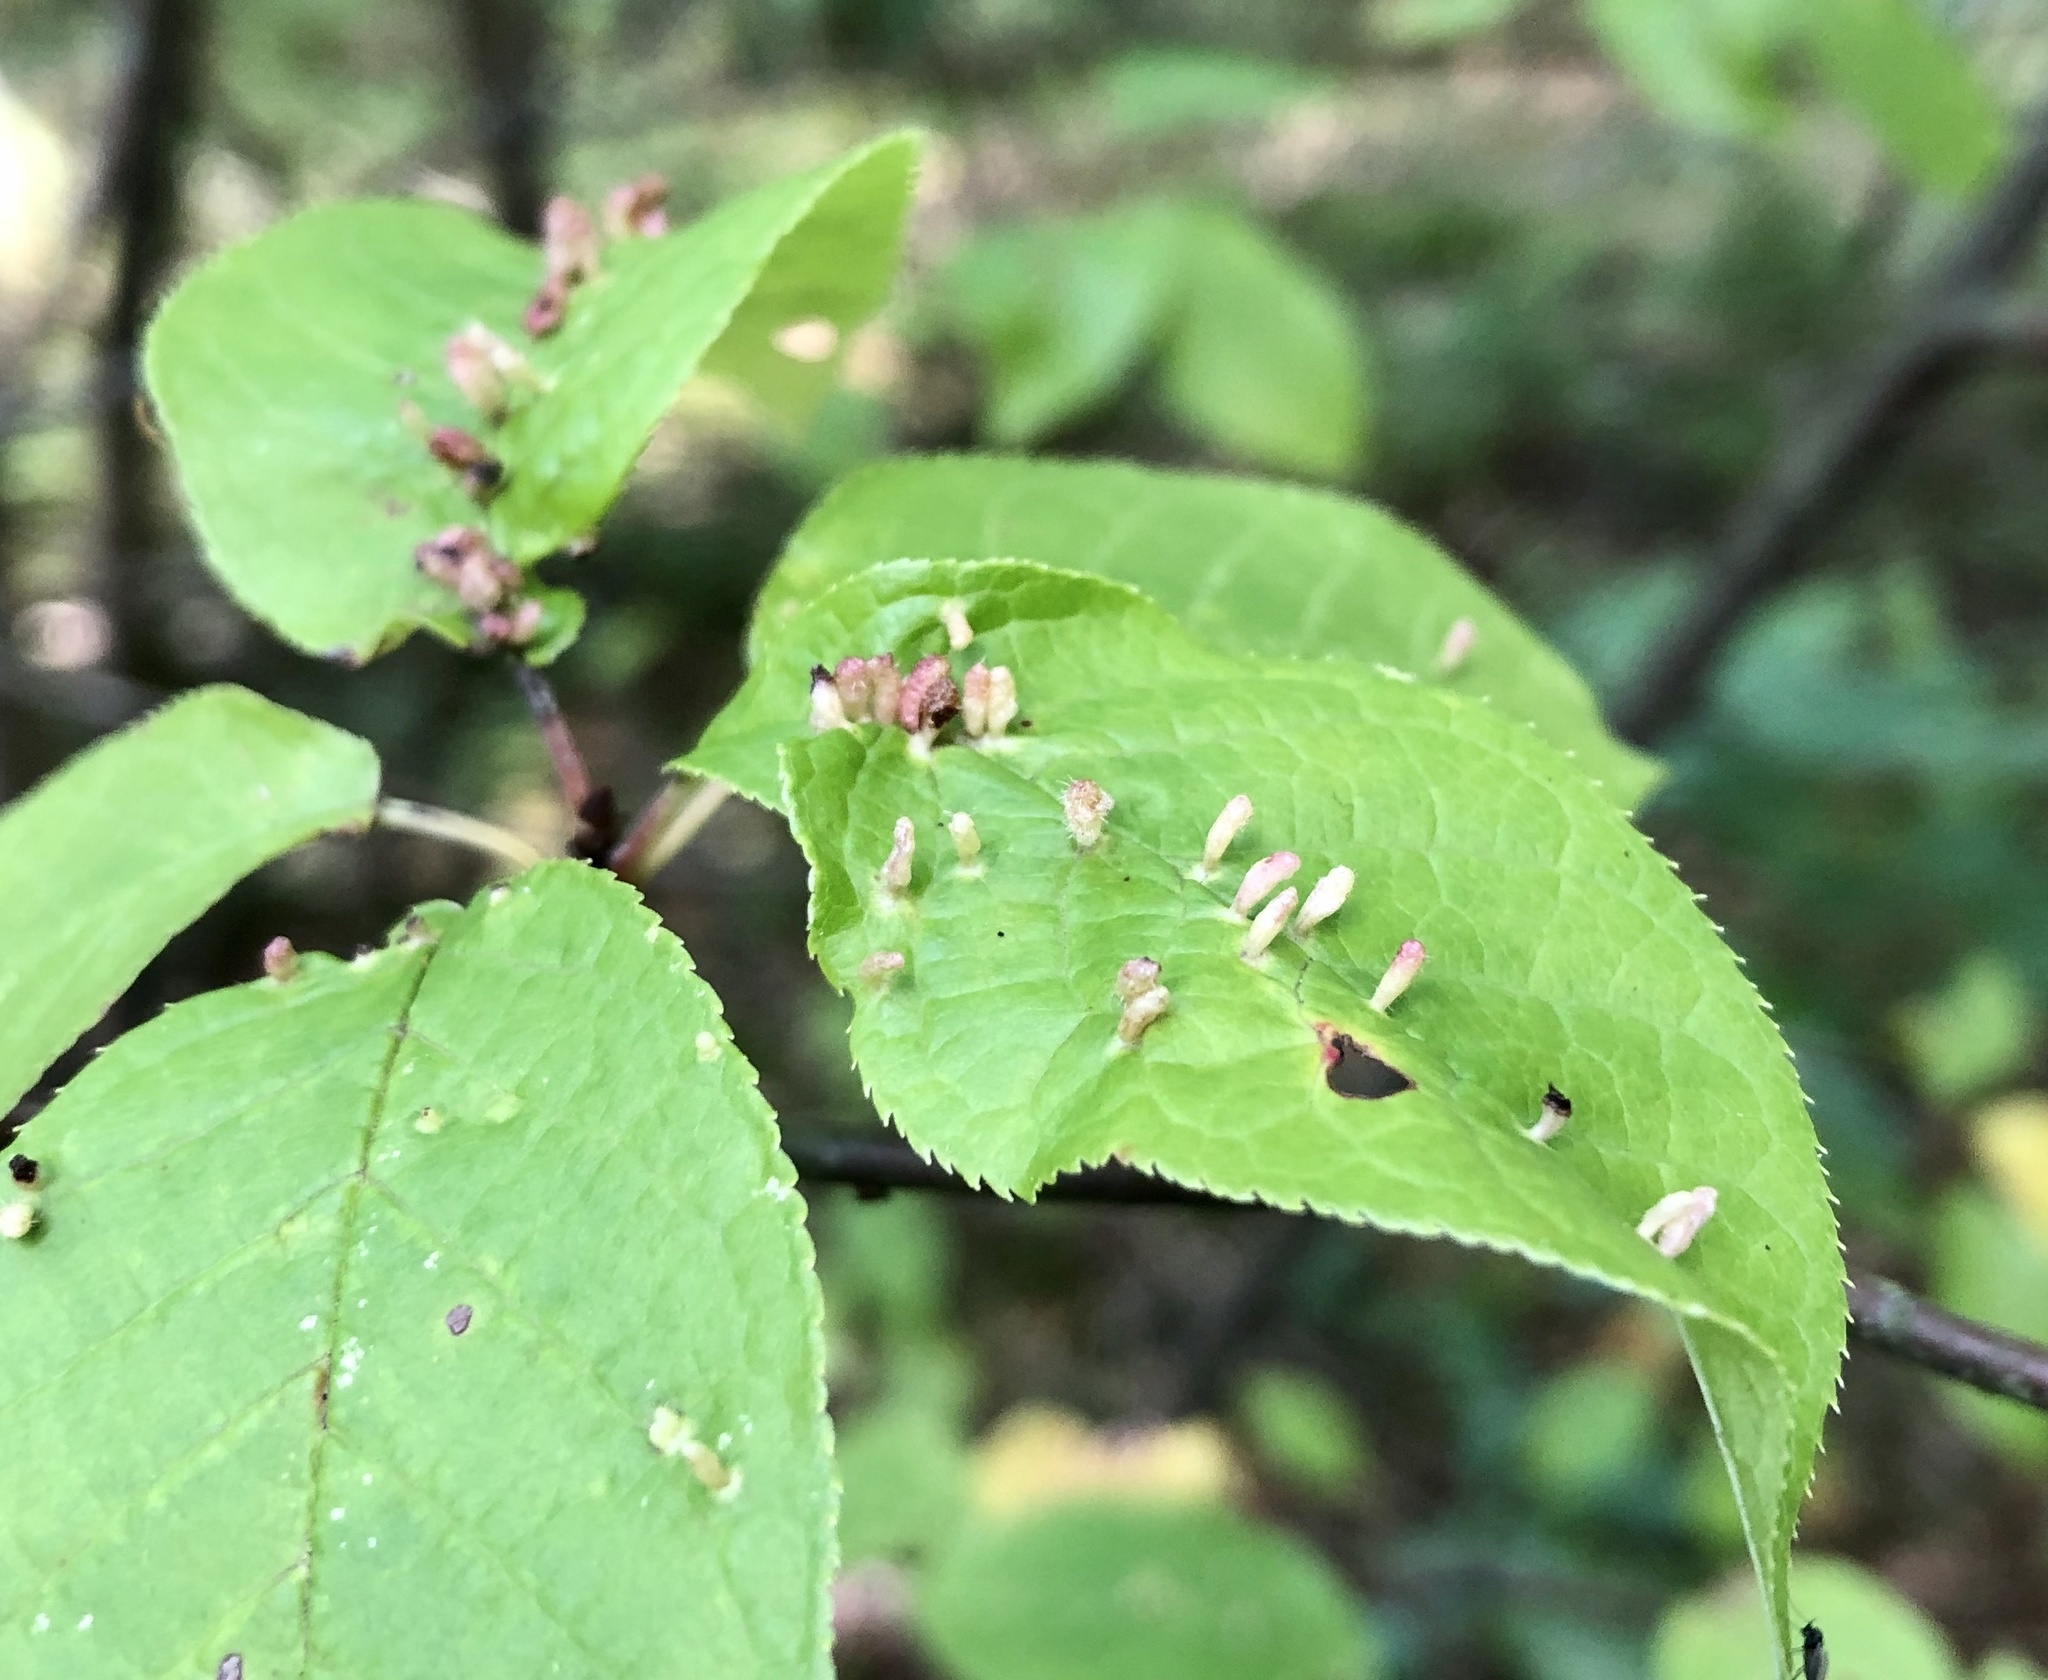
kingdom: Animalia
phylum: Arthropoda
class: Arachnida
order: Trombidiformes
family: Eriophyidae
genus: Phyllocoptes
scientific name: Phyllocoptes eupadi
